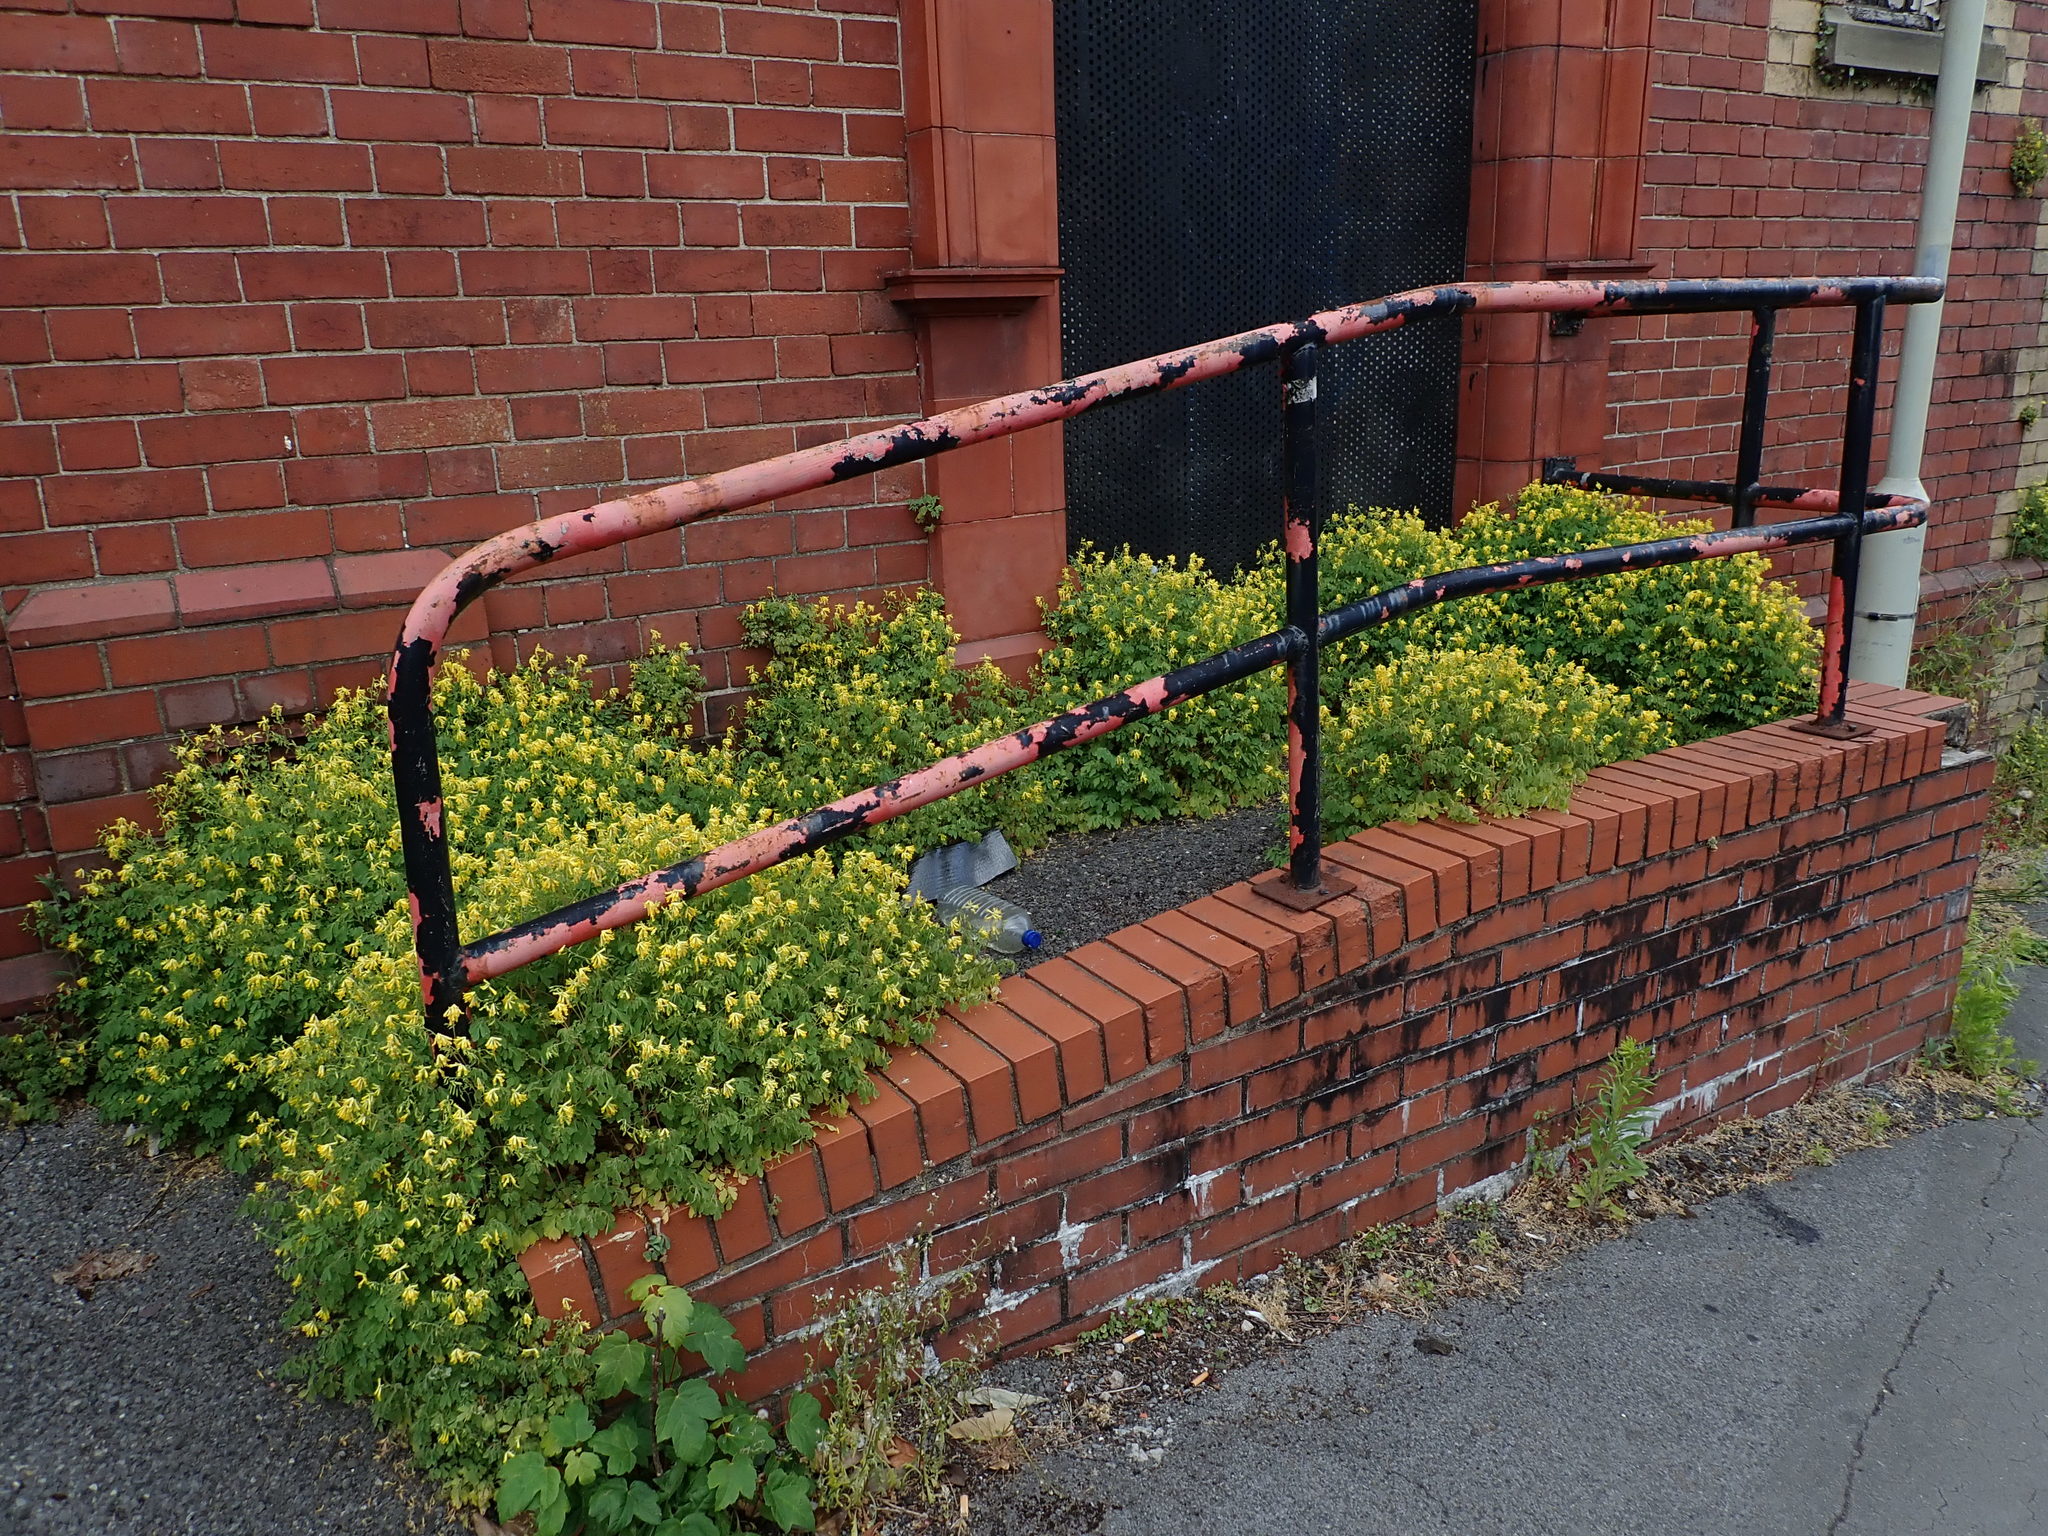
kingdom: Plantae
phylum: Tracheophyta
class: Magnoliopsida
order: Ranunculales
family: Papaveraceae
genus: Pseudofumaria
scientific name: Pseudofumaria lutea
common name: Yellow corydalis
